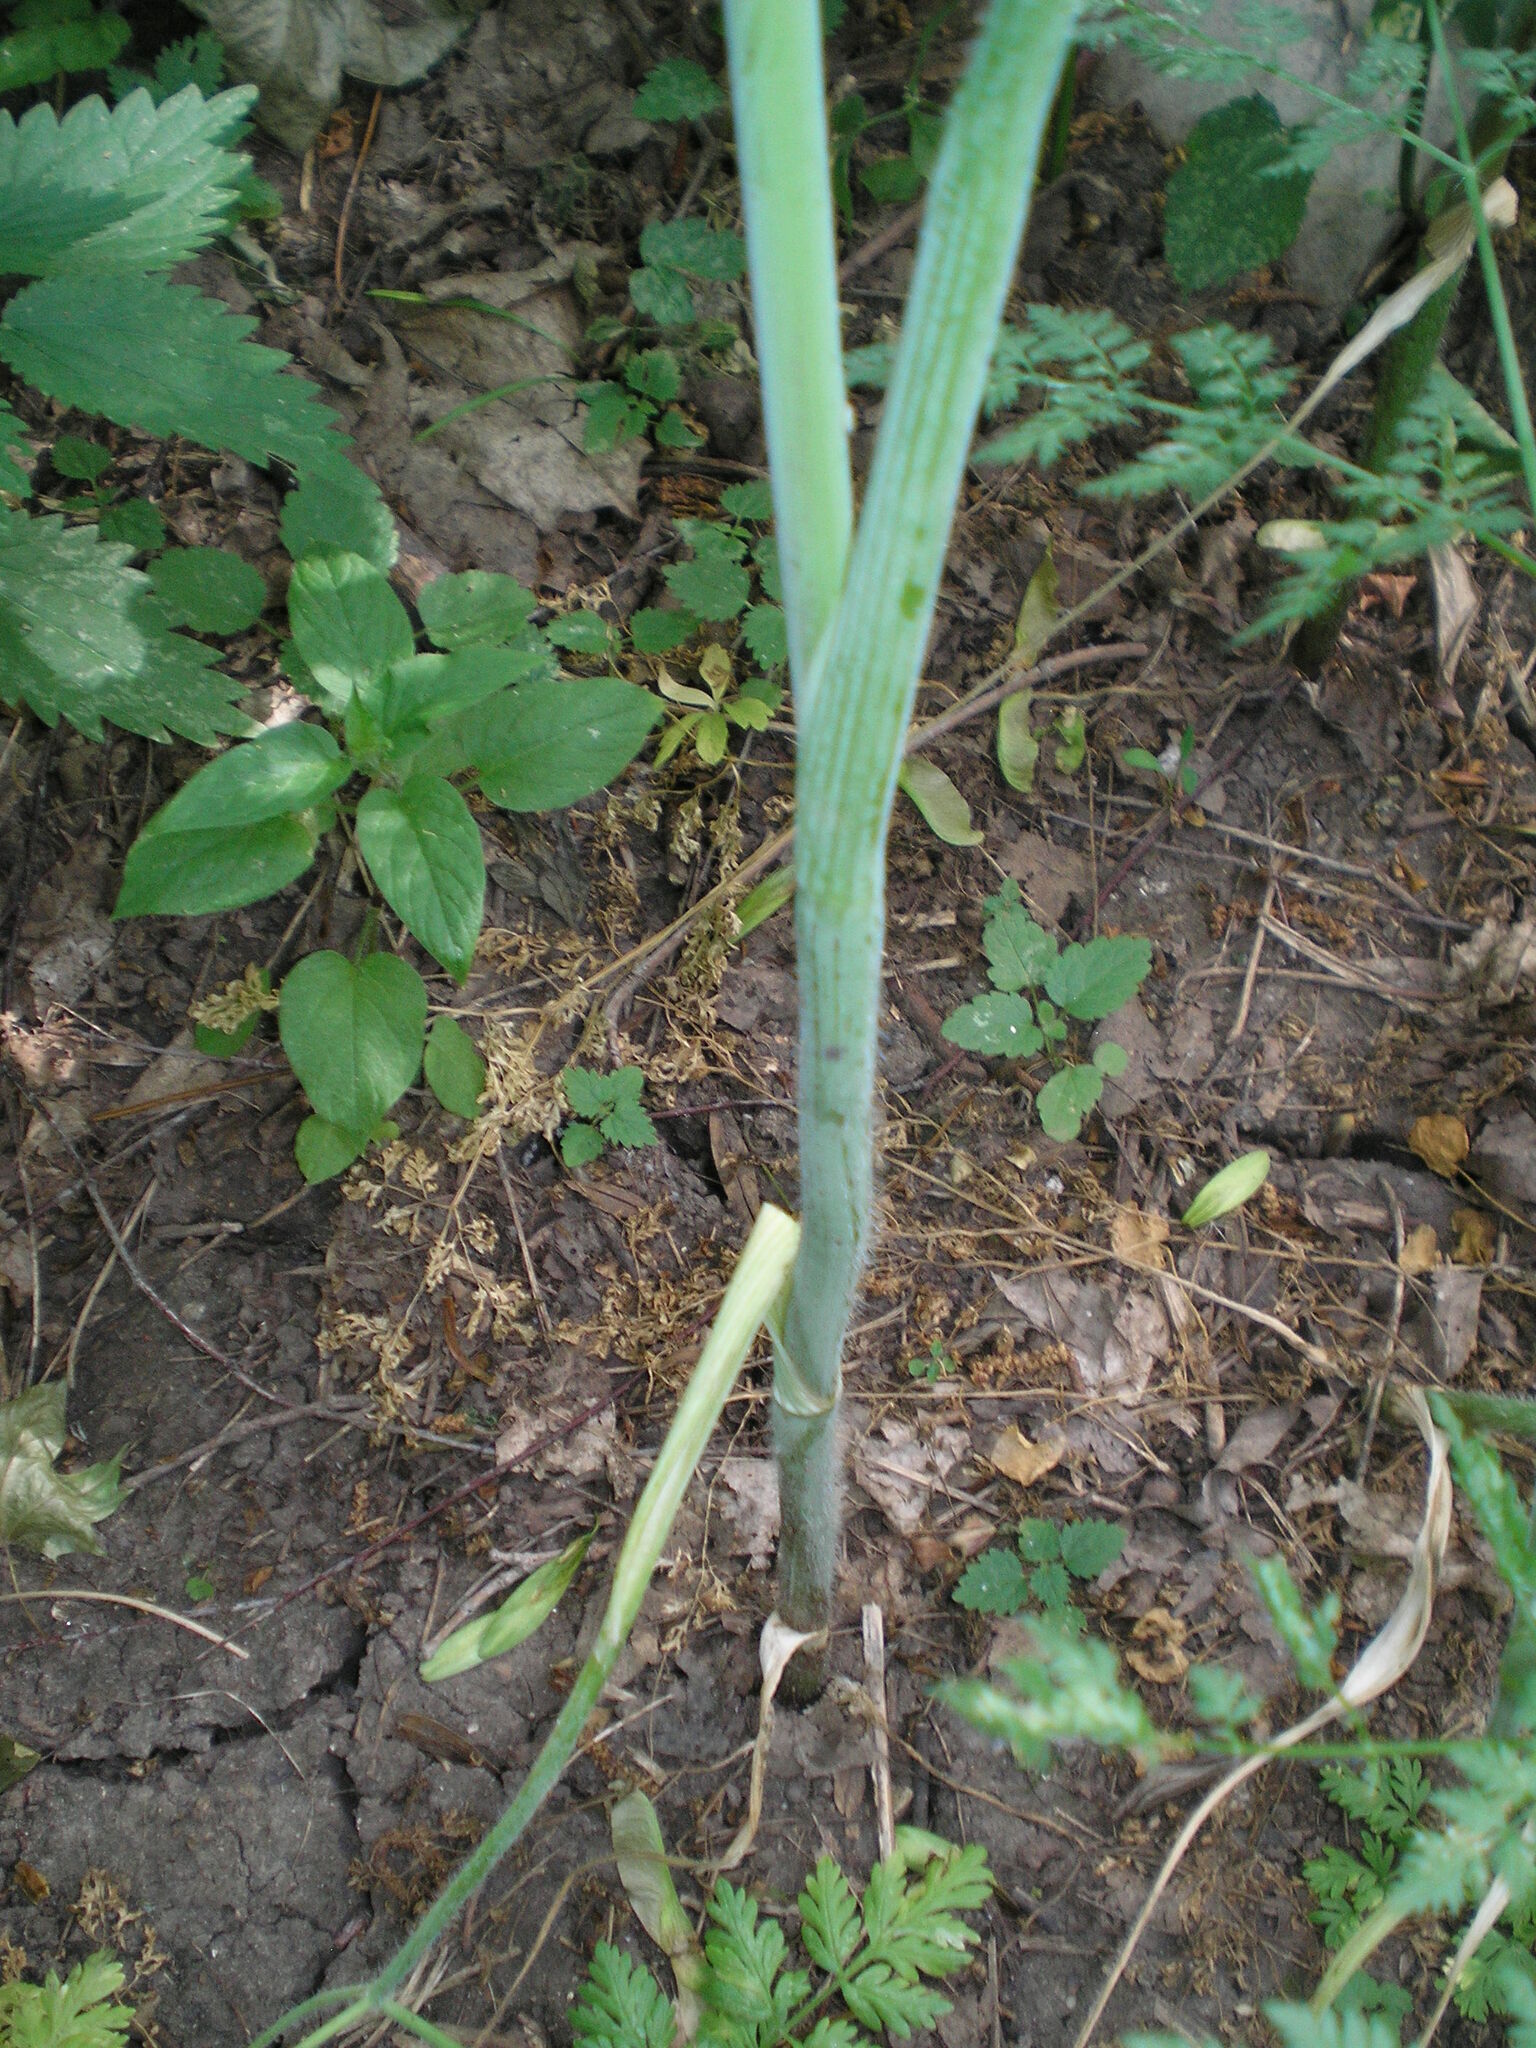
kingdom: Plantae
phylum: Tracheophyta
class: Magnoliopsida
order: Apiales
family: Apiaceae
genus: Chaerophyllum
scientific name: Chaerophyllum bulbosum
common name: Bulbous chervil
